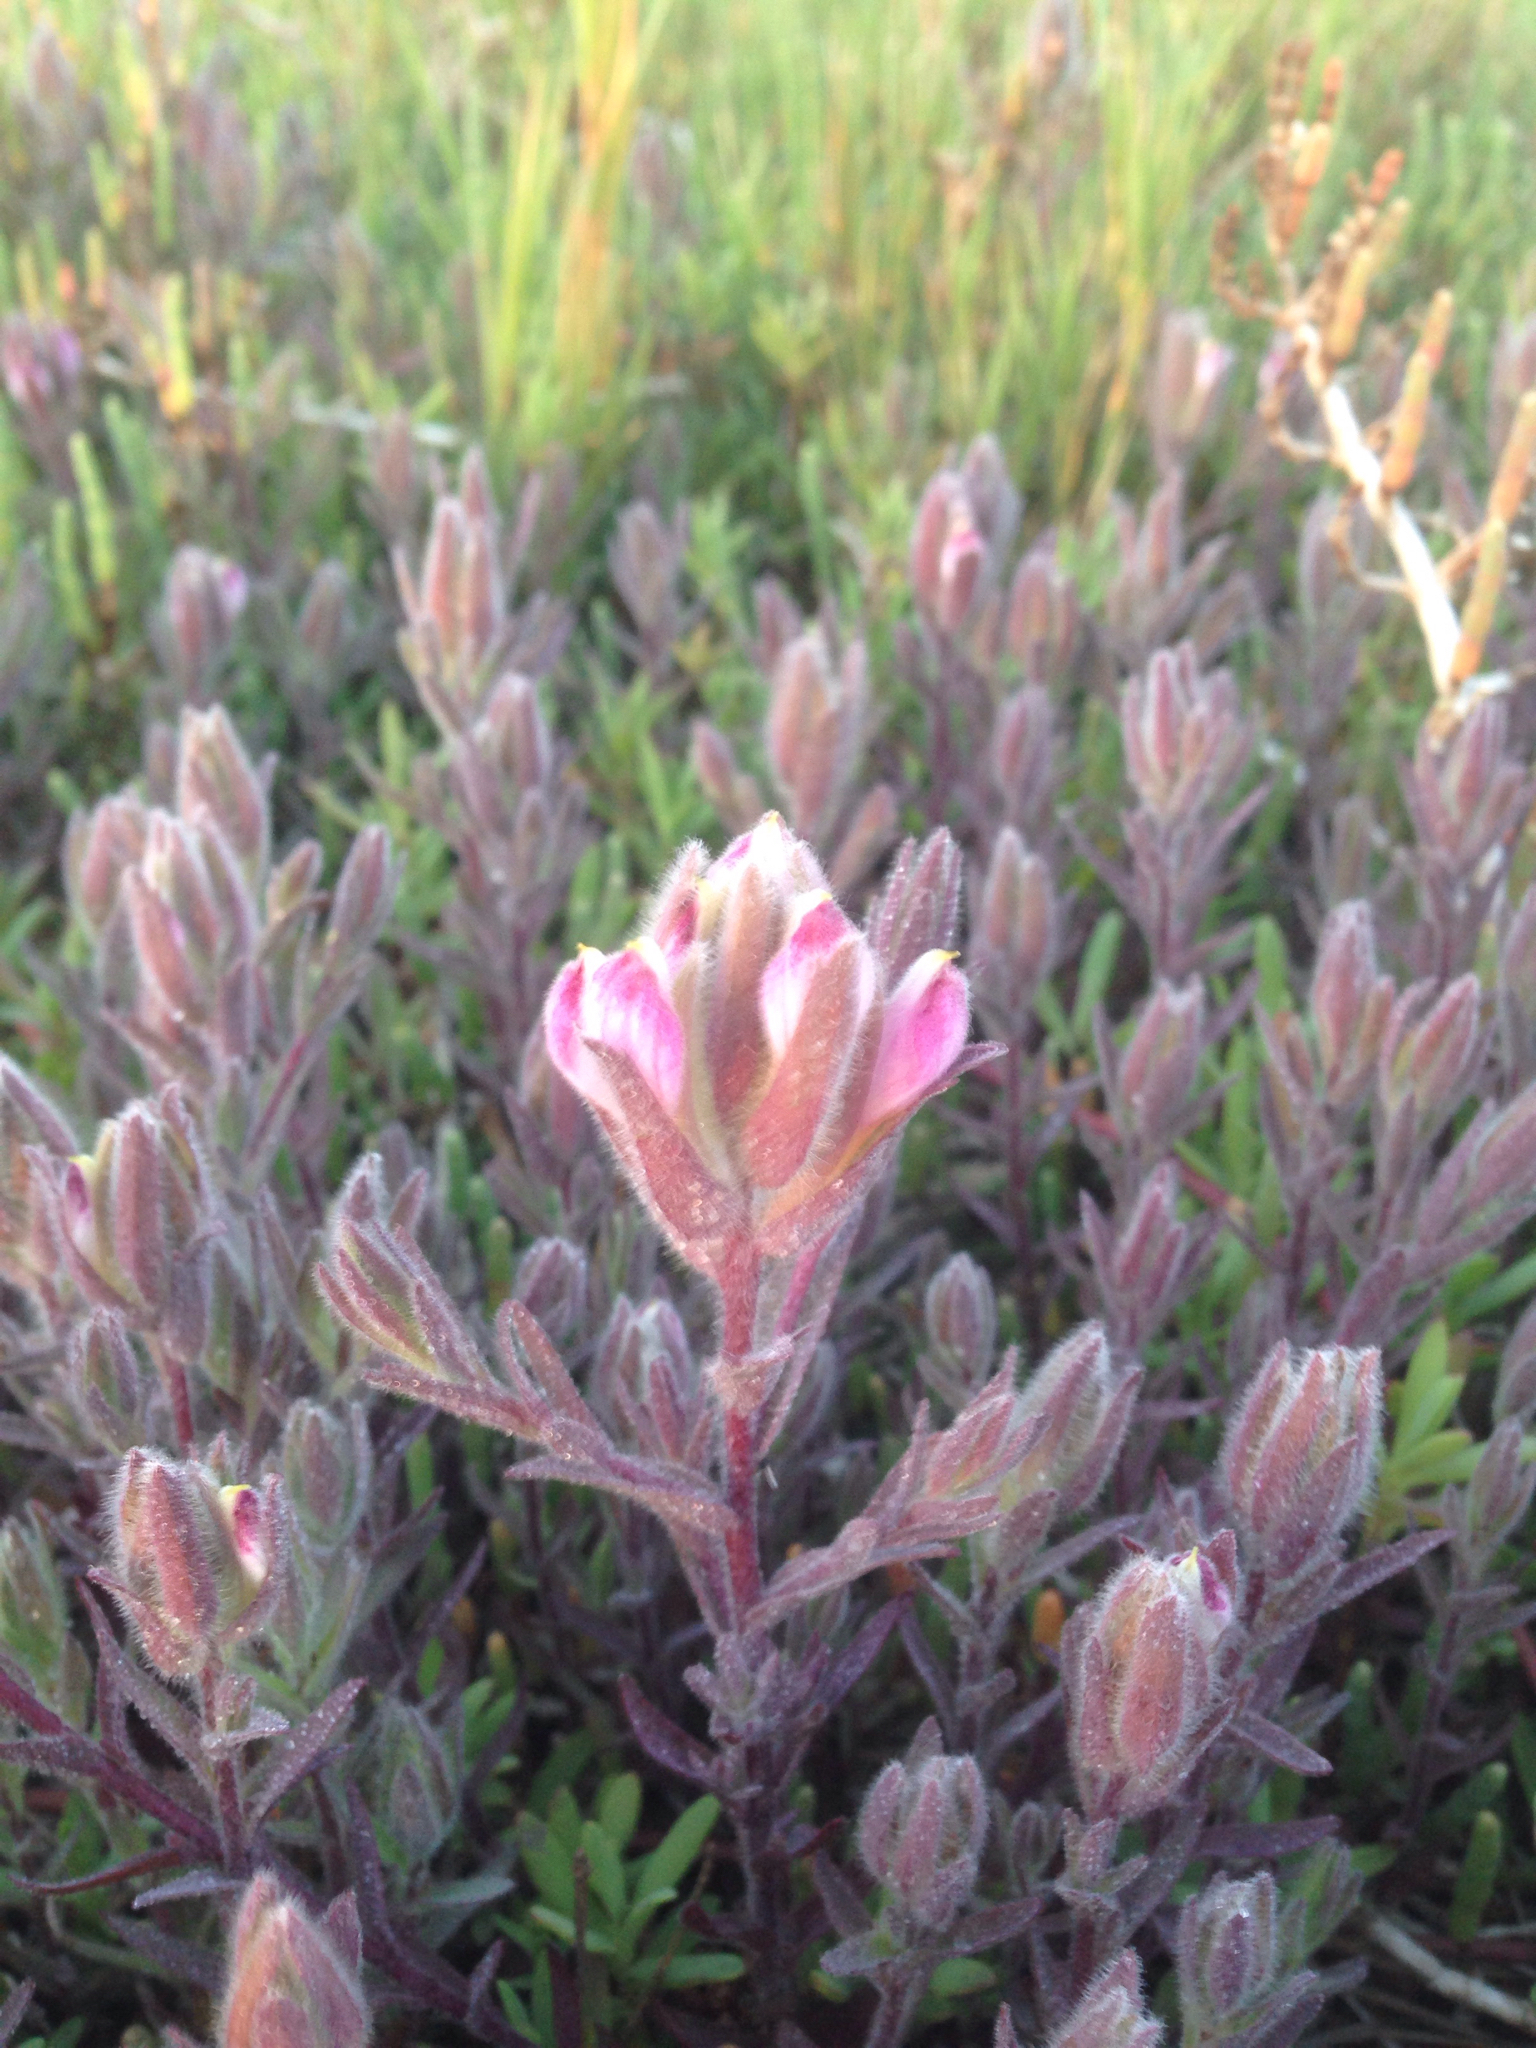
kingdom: Plantae
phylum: Tracheophyta
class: Magnoliopsida
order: Lamiales
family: Orobanchaceae
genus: Chloropyron
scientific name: Chloropyron maritimum
